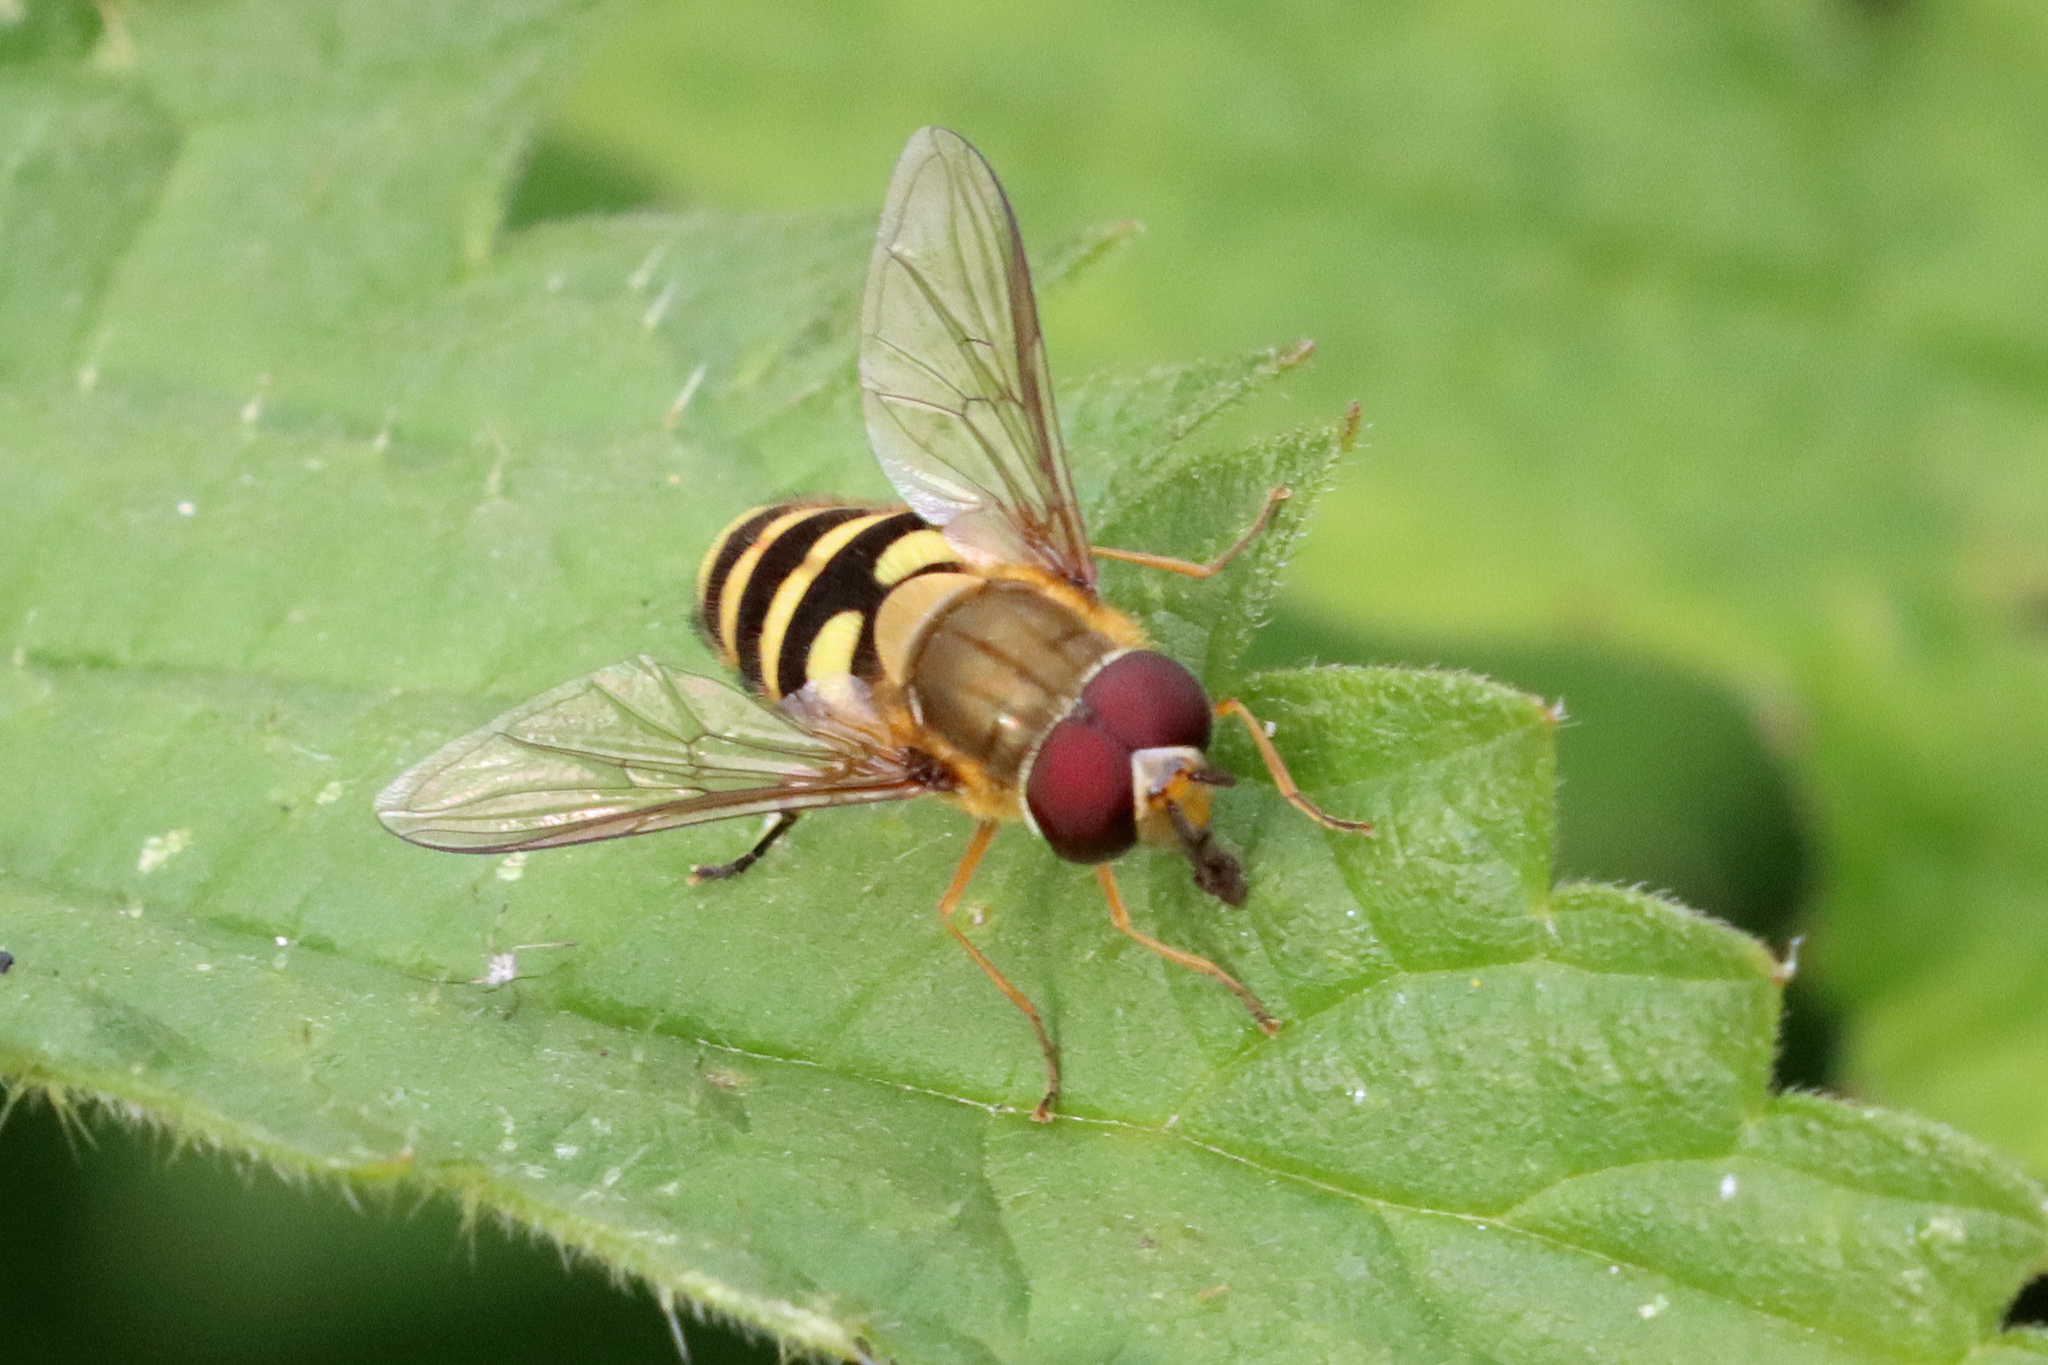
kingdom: Animalia
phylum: Arthropoda
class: Insecta
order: Diptera
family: Syrphidae
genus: Syrphus
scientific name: Syrphus
